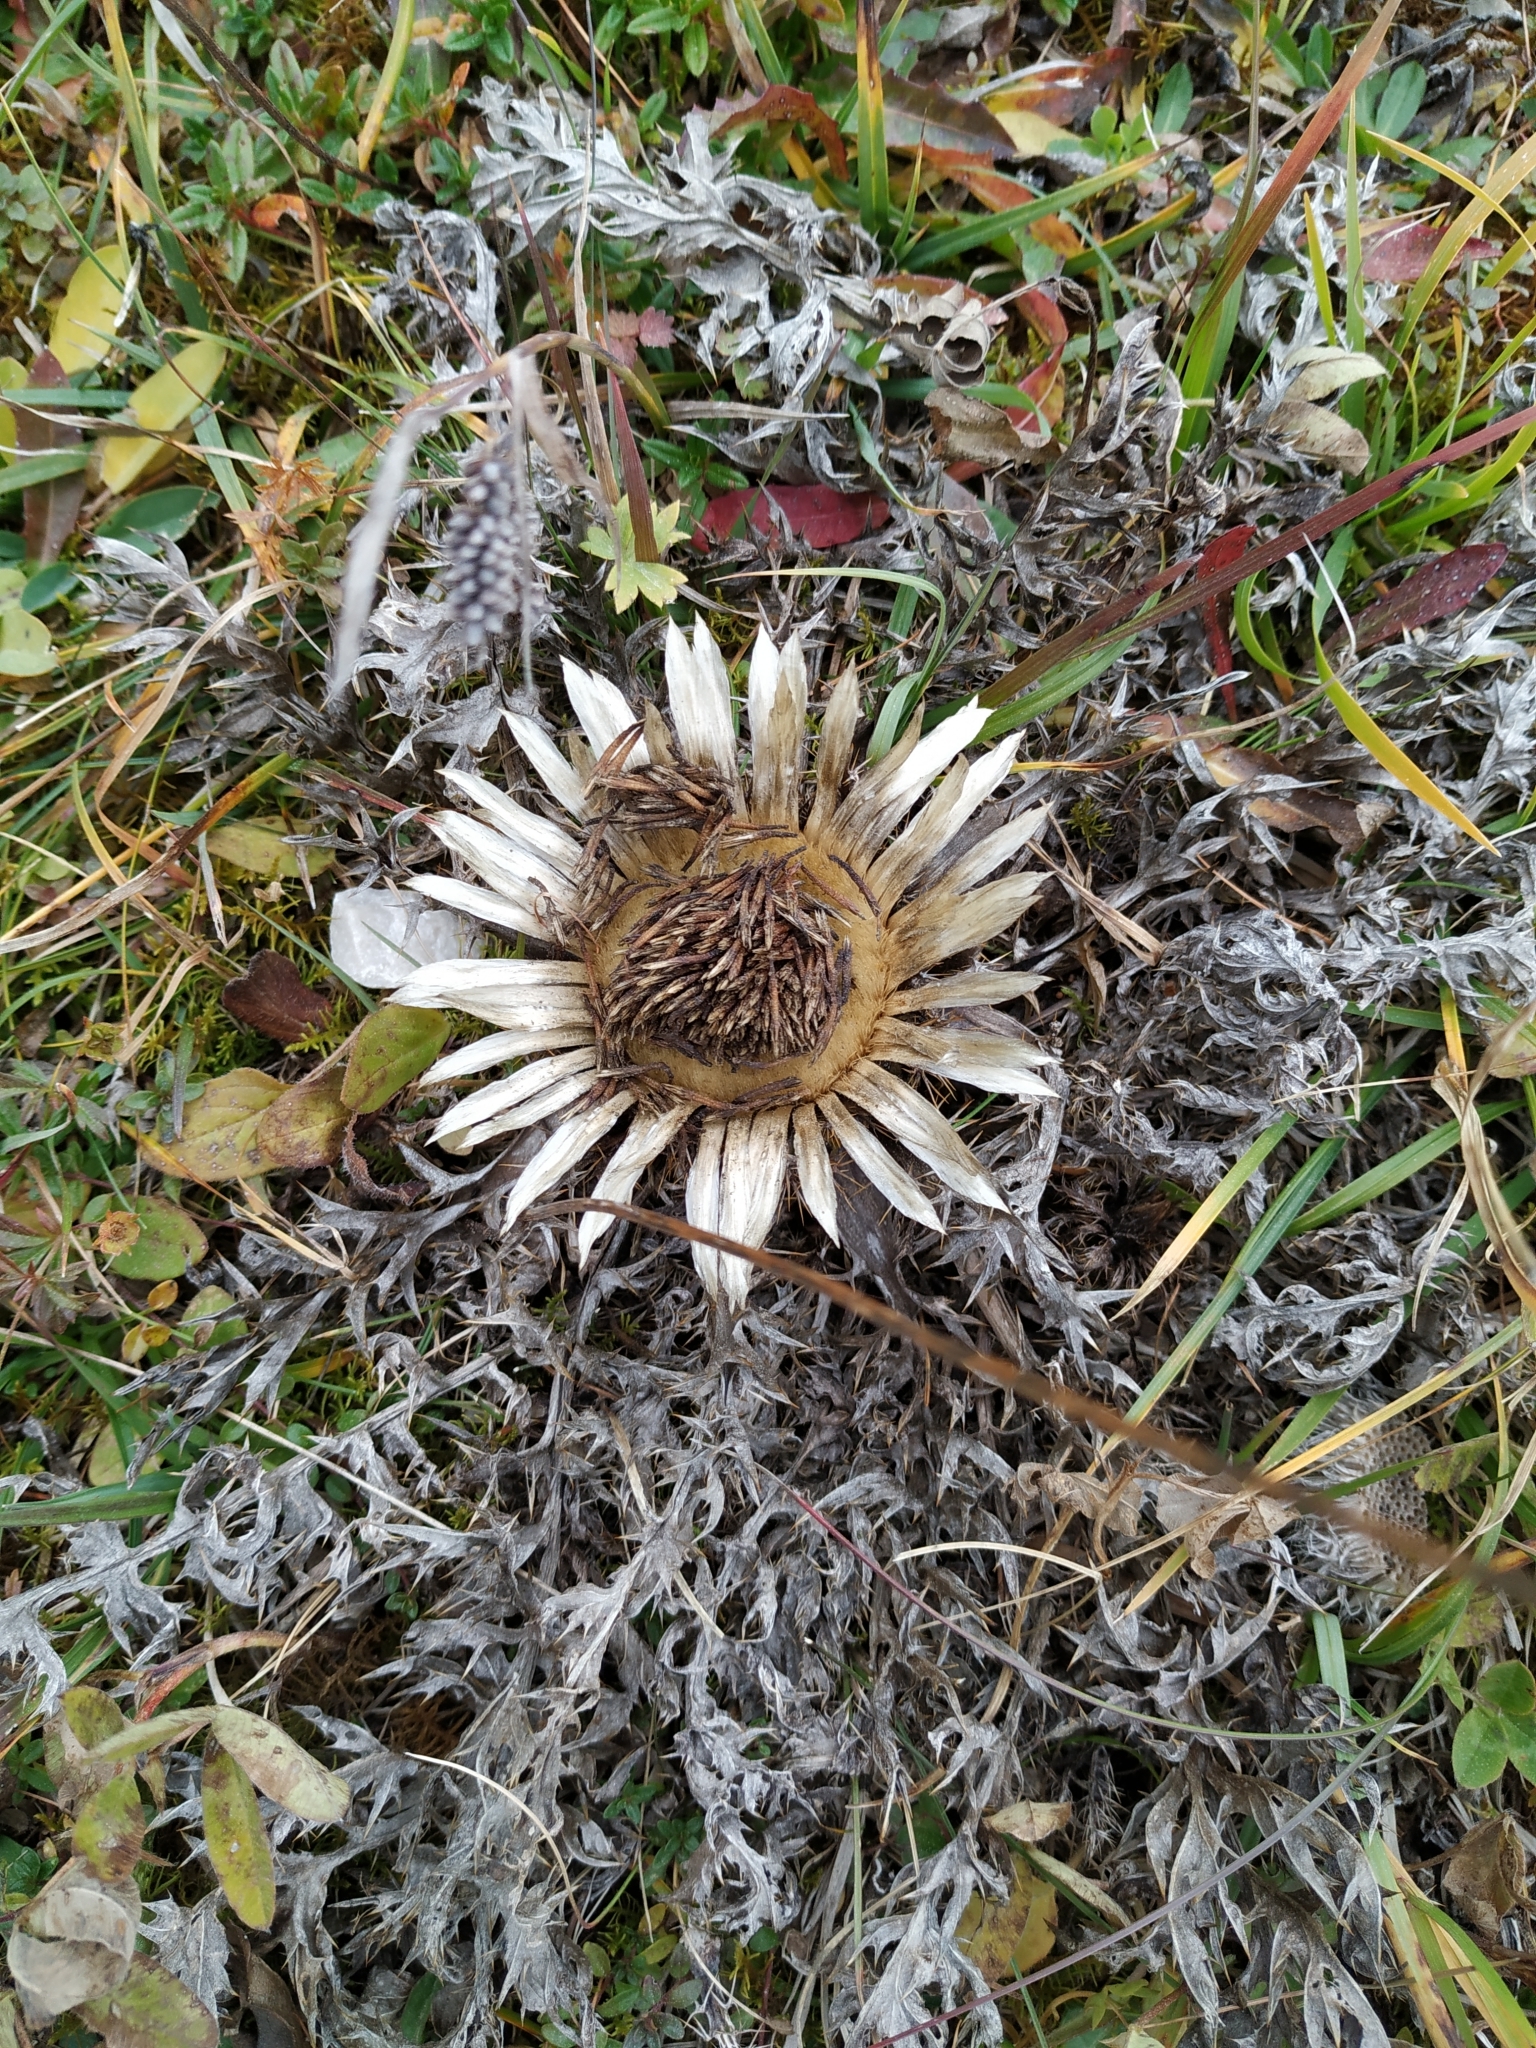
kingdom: Plantae
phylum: Tracheophyta
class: Magnoliopsida
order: Asterales
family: Asteraceae
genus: Carlina
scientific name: Carlina acaulis
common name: Stemless carline thistle
